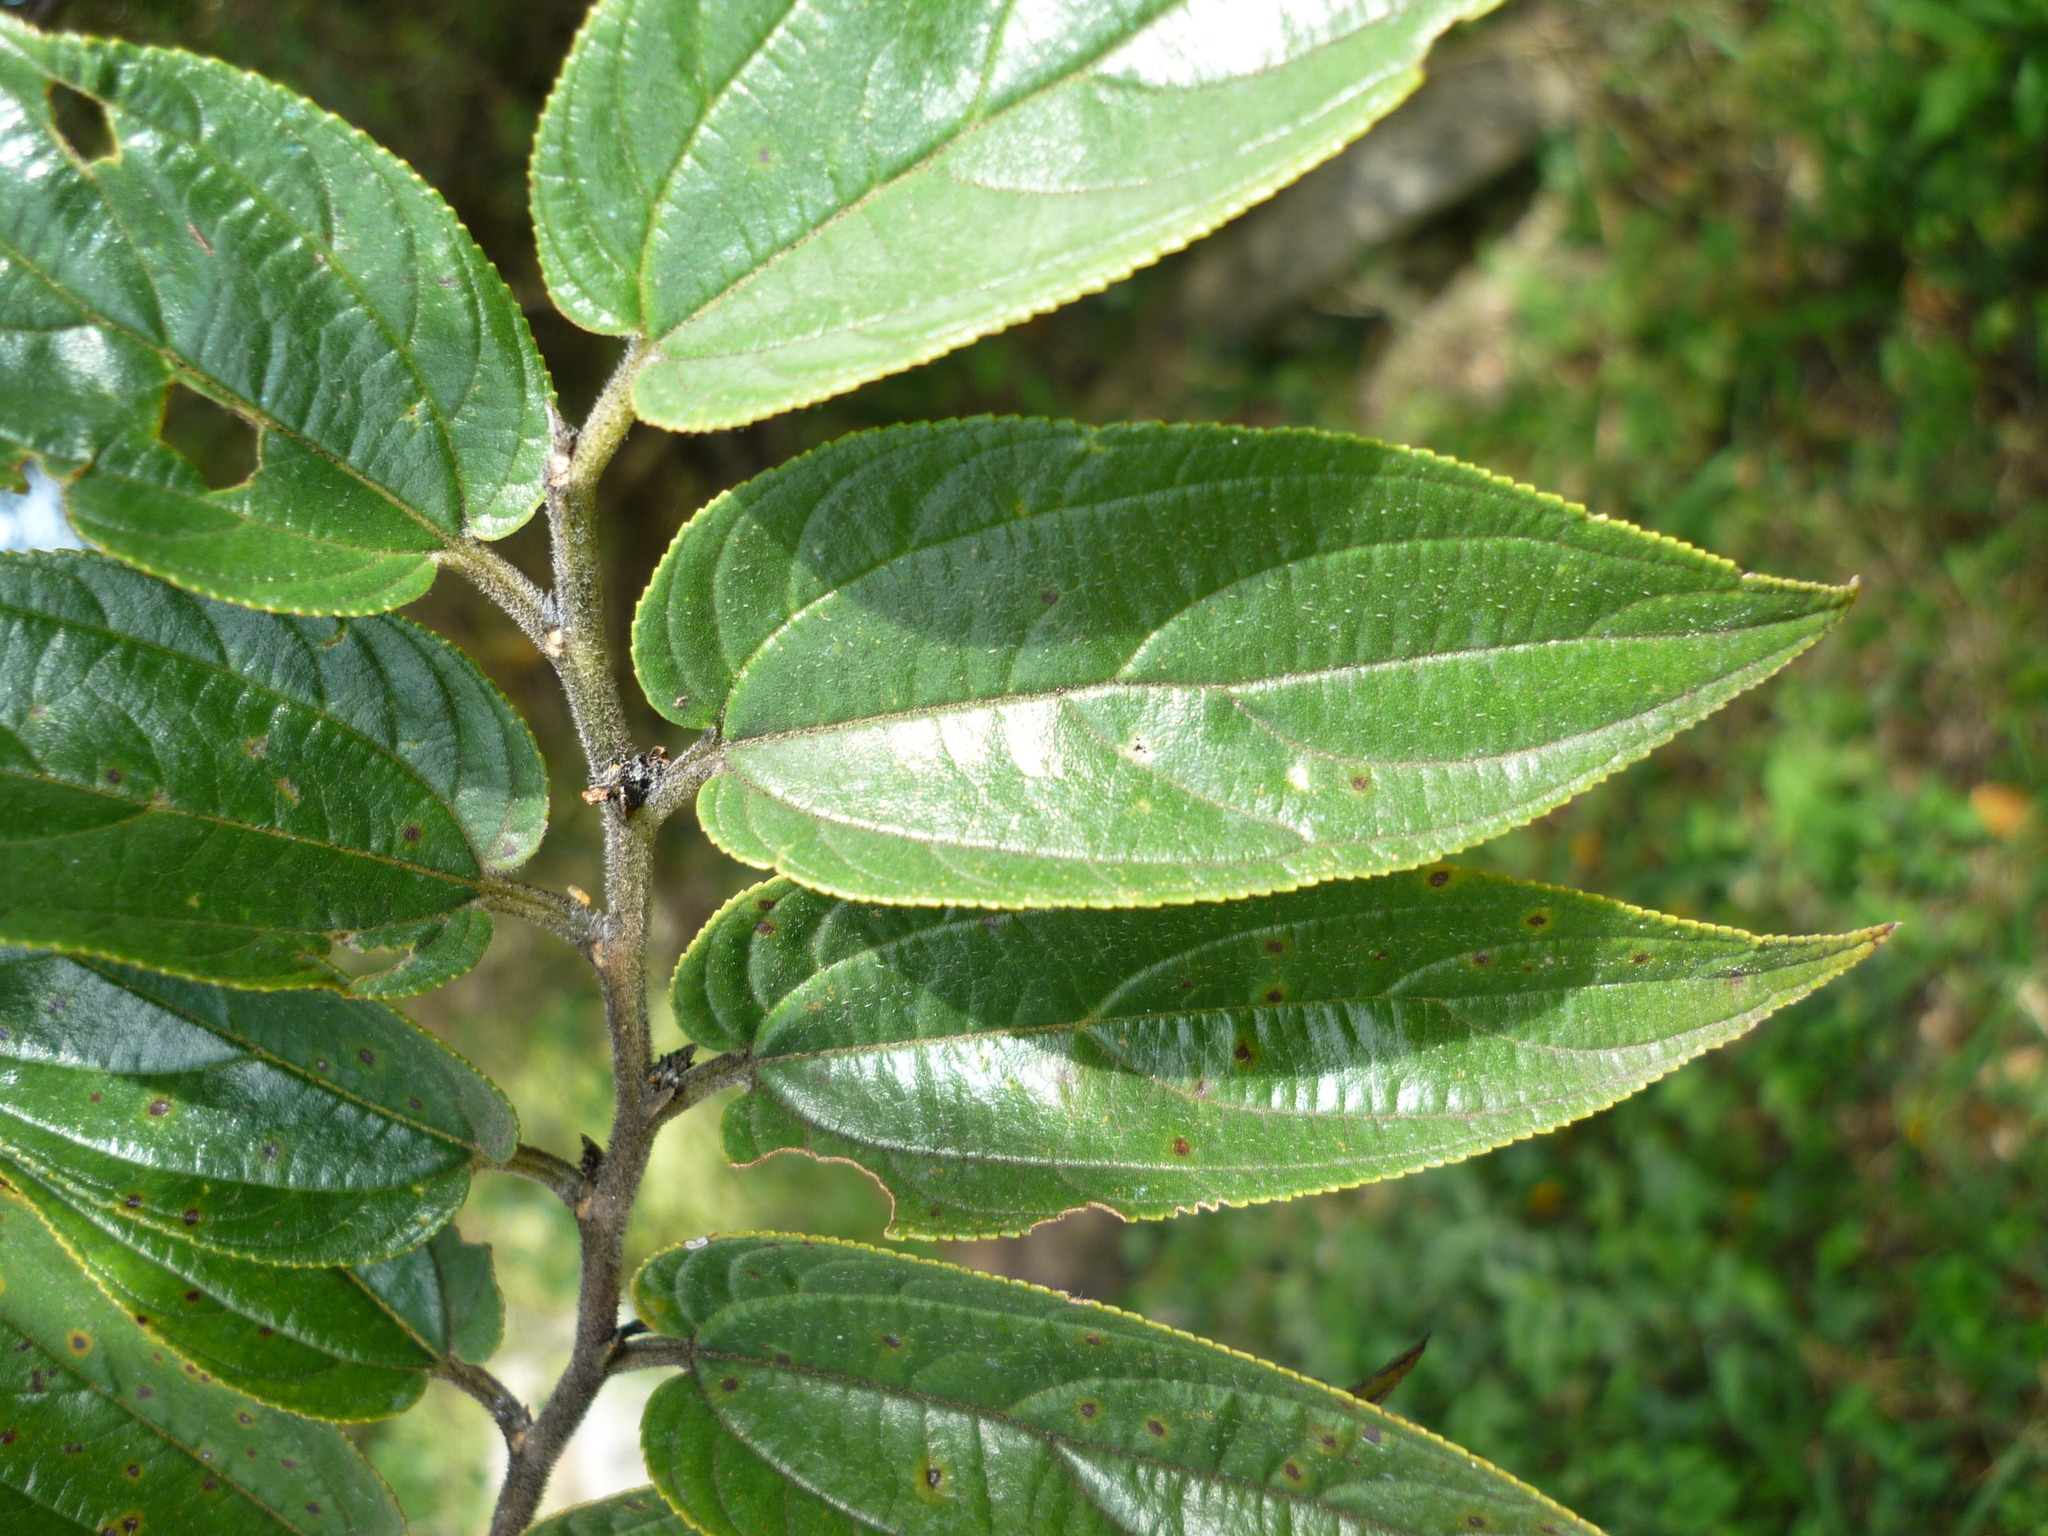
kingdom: Plantae
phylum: Tracheophyta
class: Magnoliopsida
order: Rosales
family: Cannabaceae
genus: Trema
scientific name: Trema micranthum
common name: Jamaican nettletree
